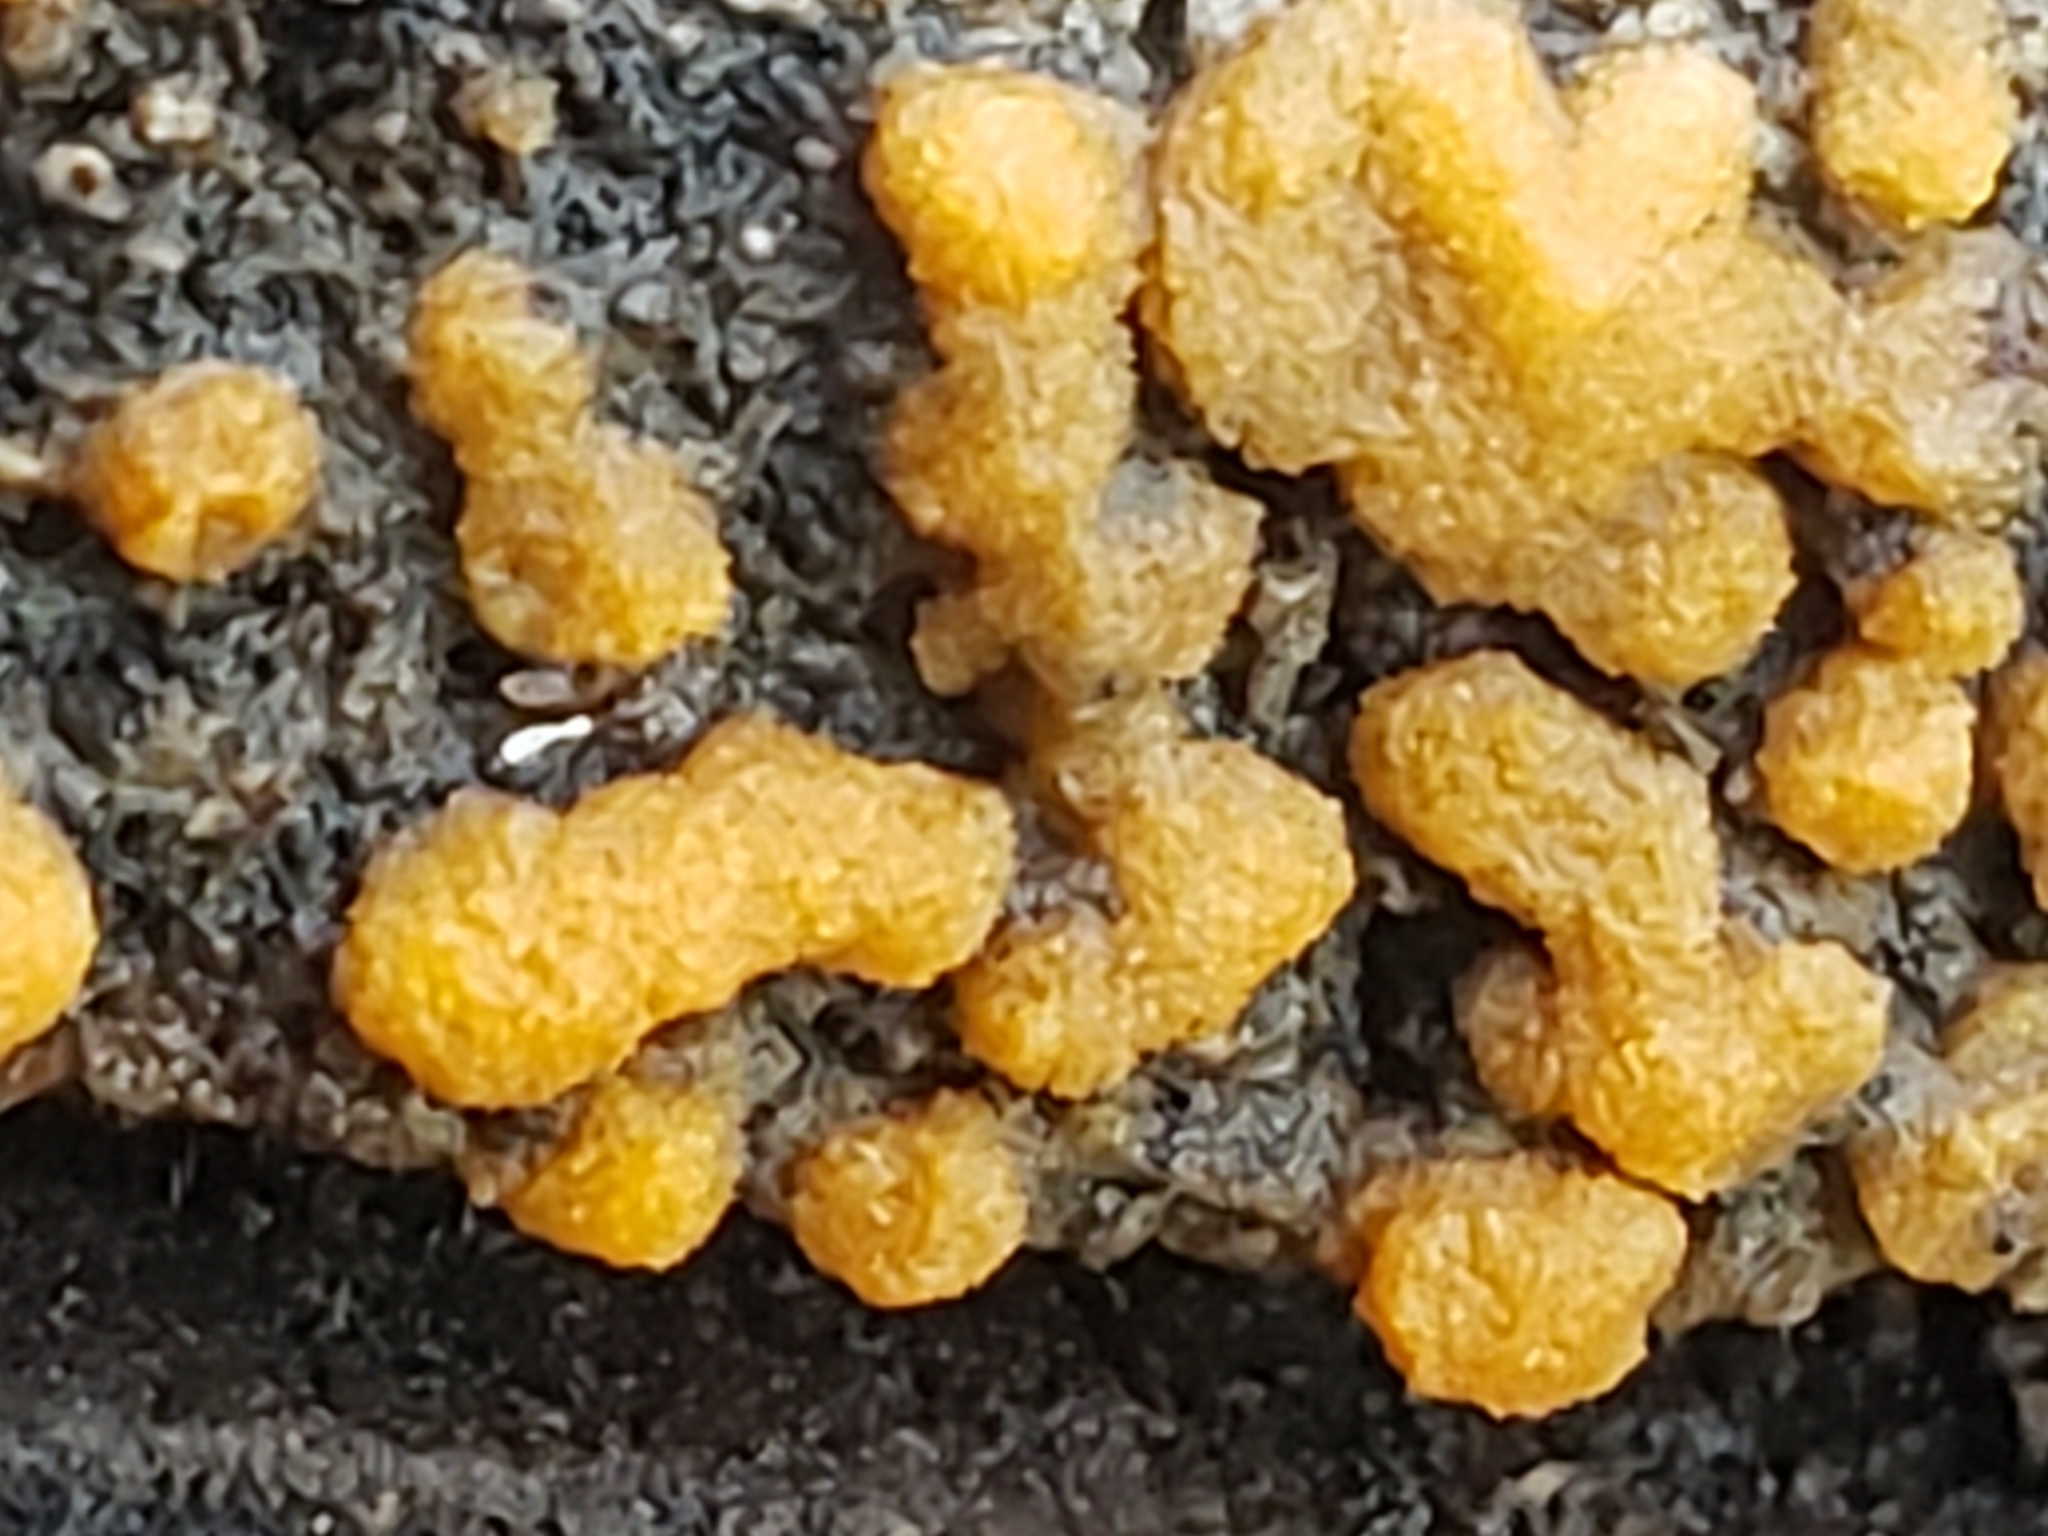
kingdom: Fungi
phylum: Ascomycota
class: Pezizomycetes
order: Pezizales
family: Pyronemataceae
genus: Sphaerosporium
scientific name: Sphaerosporium lignatile
